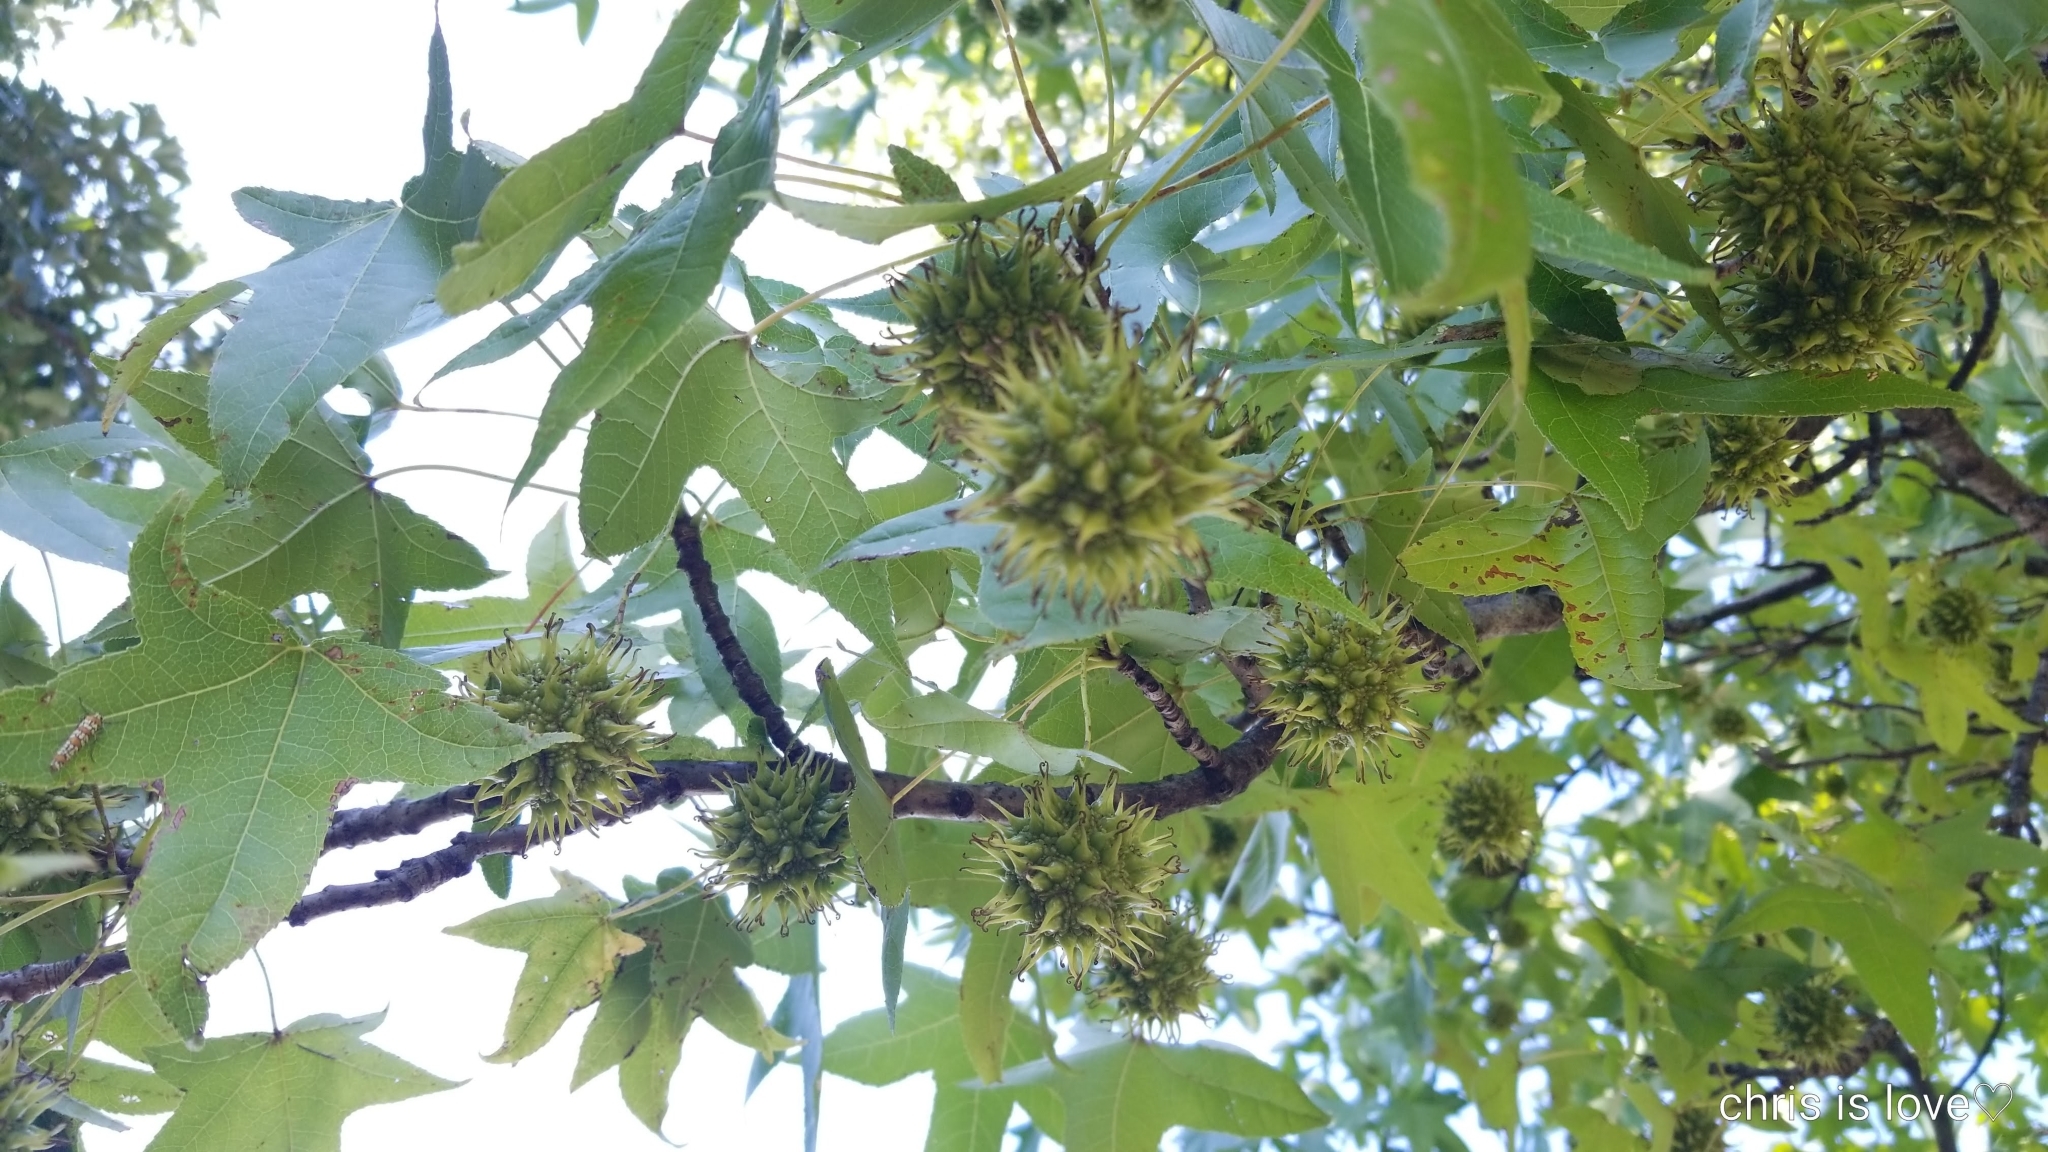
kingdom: Plantae
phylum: Tracheophyta
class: Magnoliopsida
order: Saxifragales
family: Altingiaceae
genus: Liquidambar
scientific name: Liquidambar styraciflua
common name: Sweet gum
